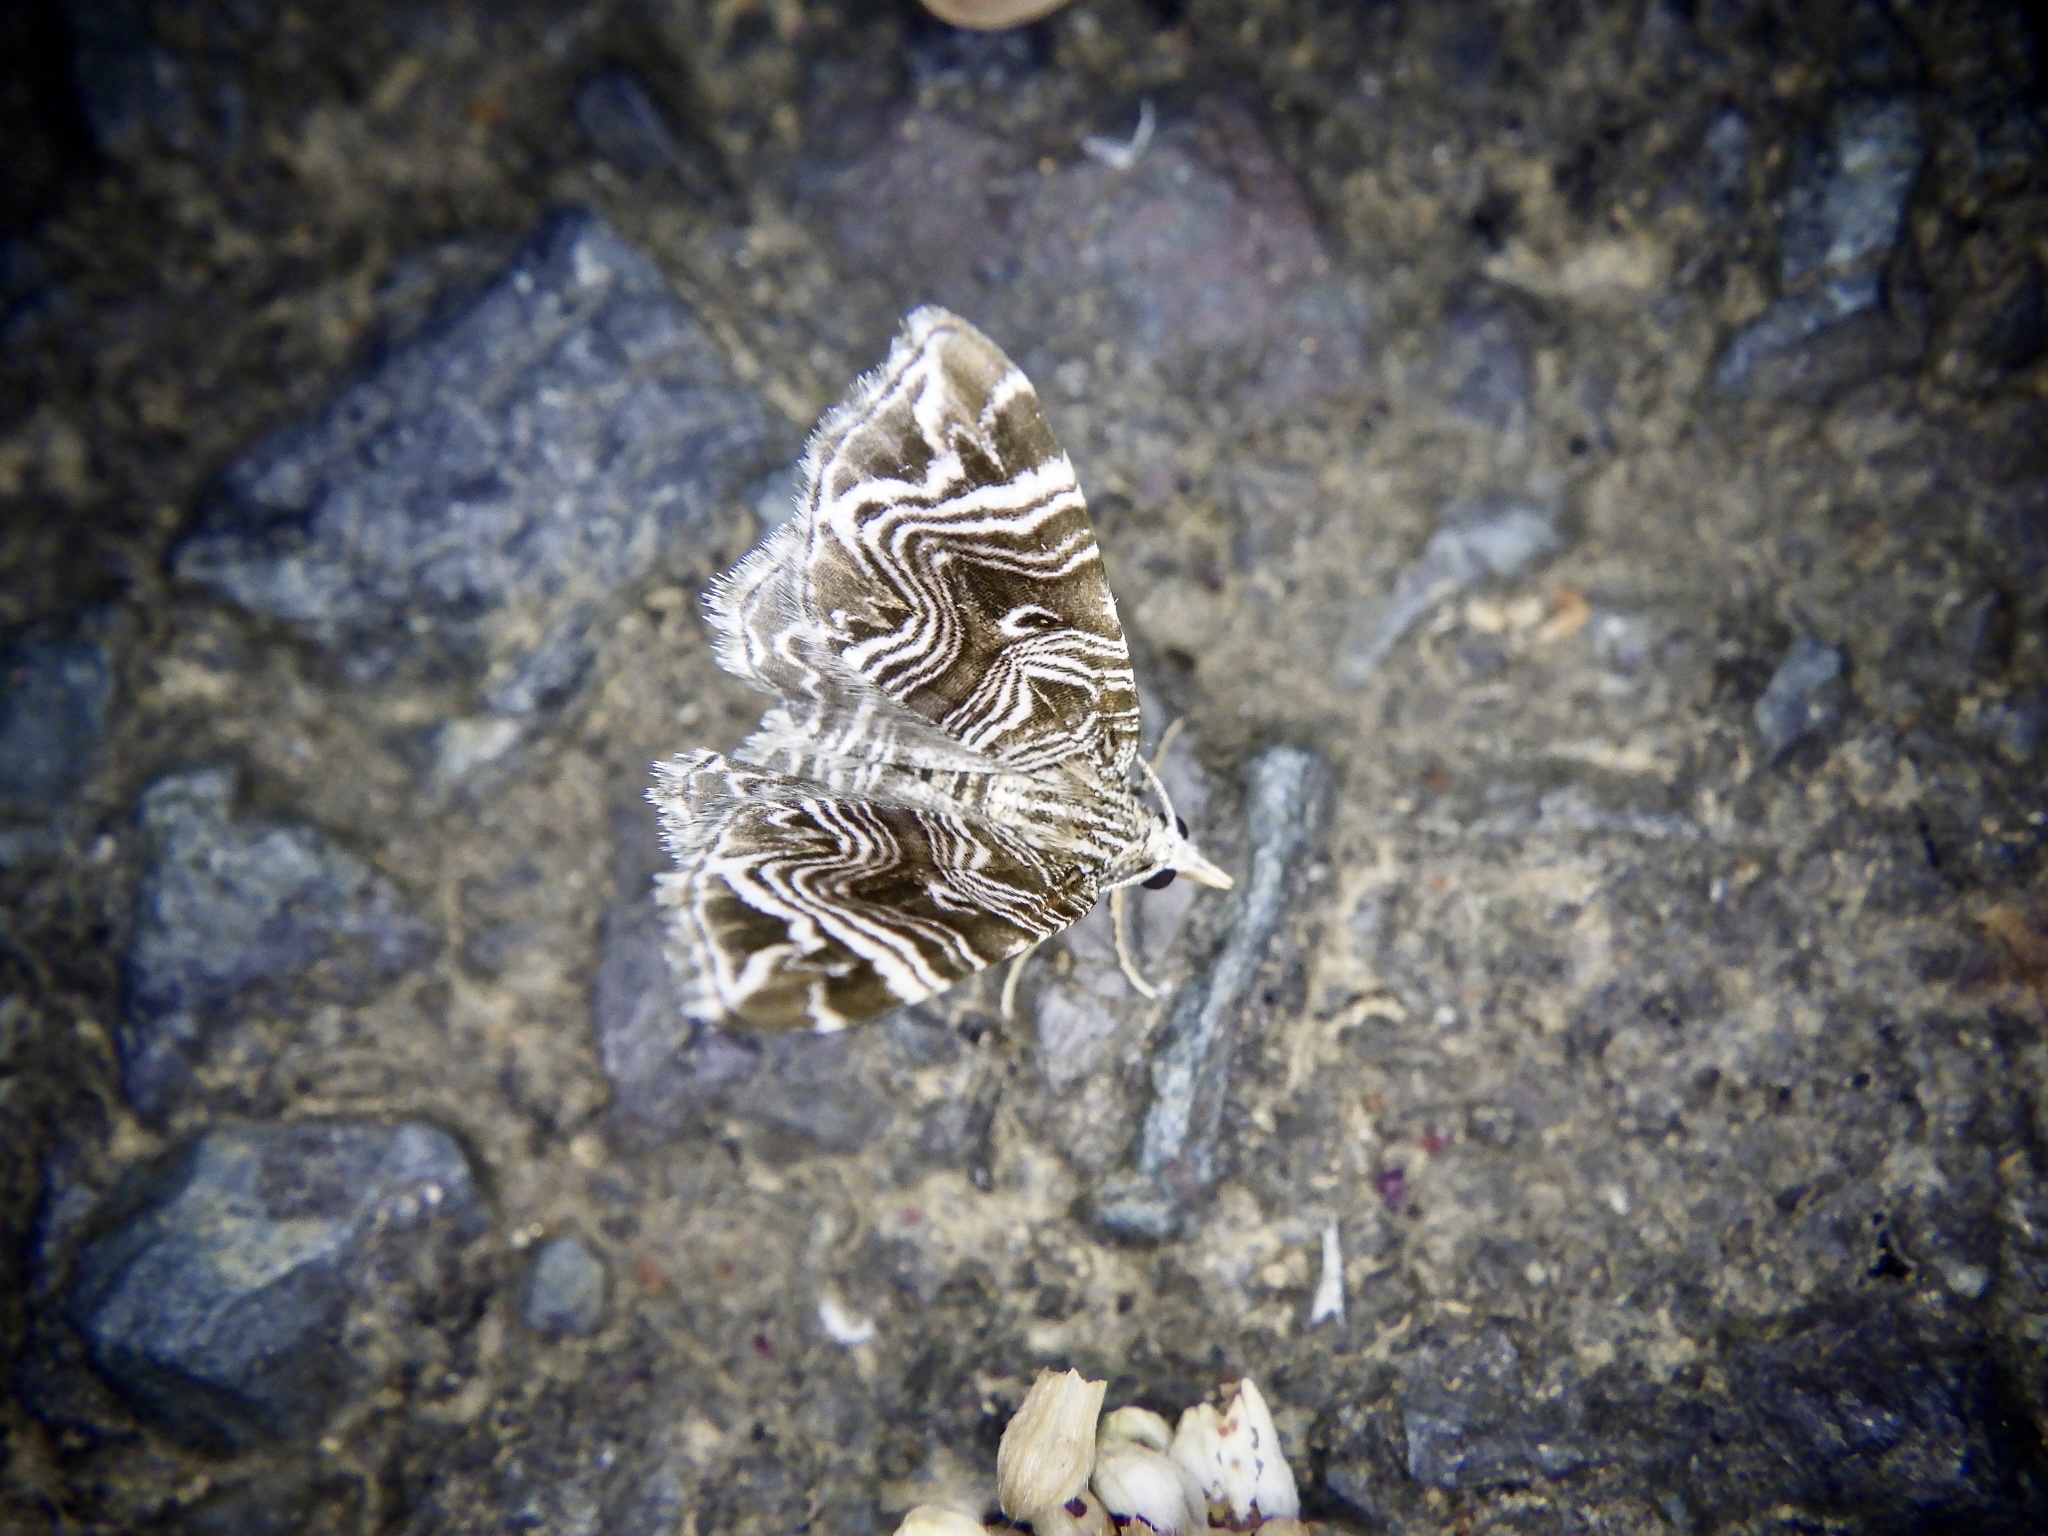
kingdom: Animalia
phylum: Arthropoda
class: Insecta
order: Lepidoptera
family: Geometridae
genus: Microlygris
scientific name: Microlygris multistriata
